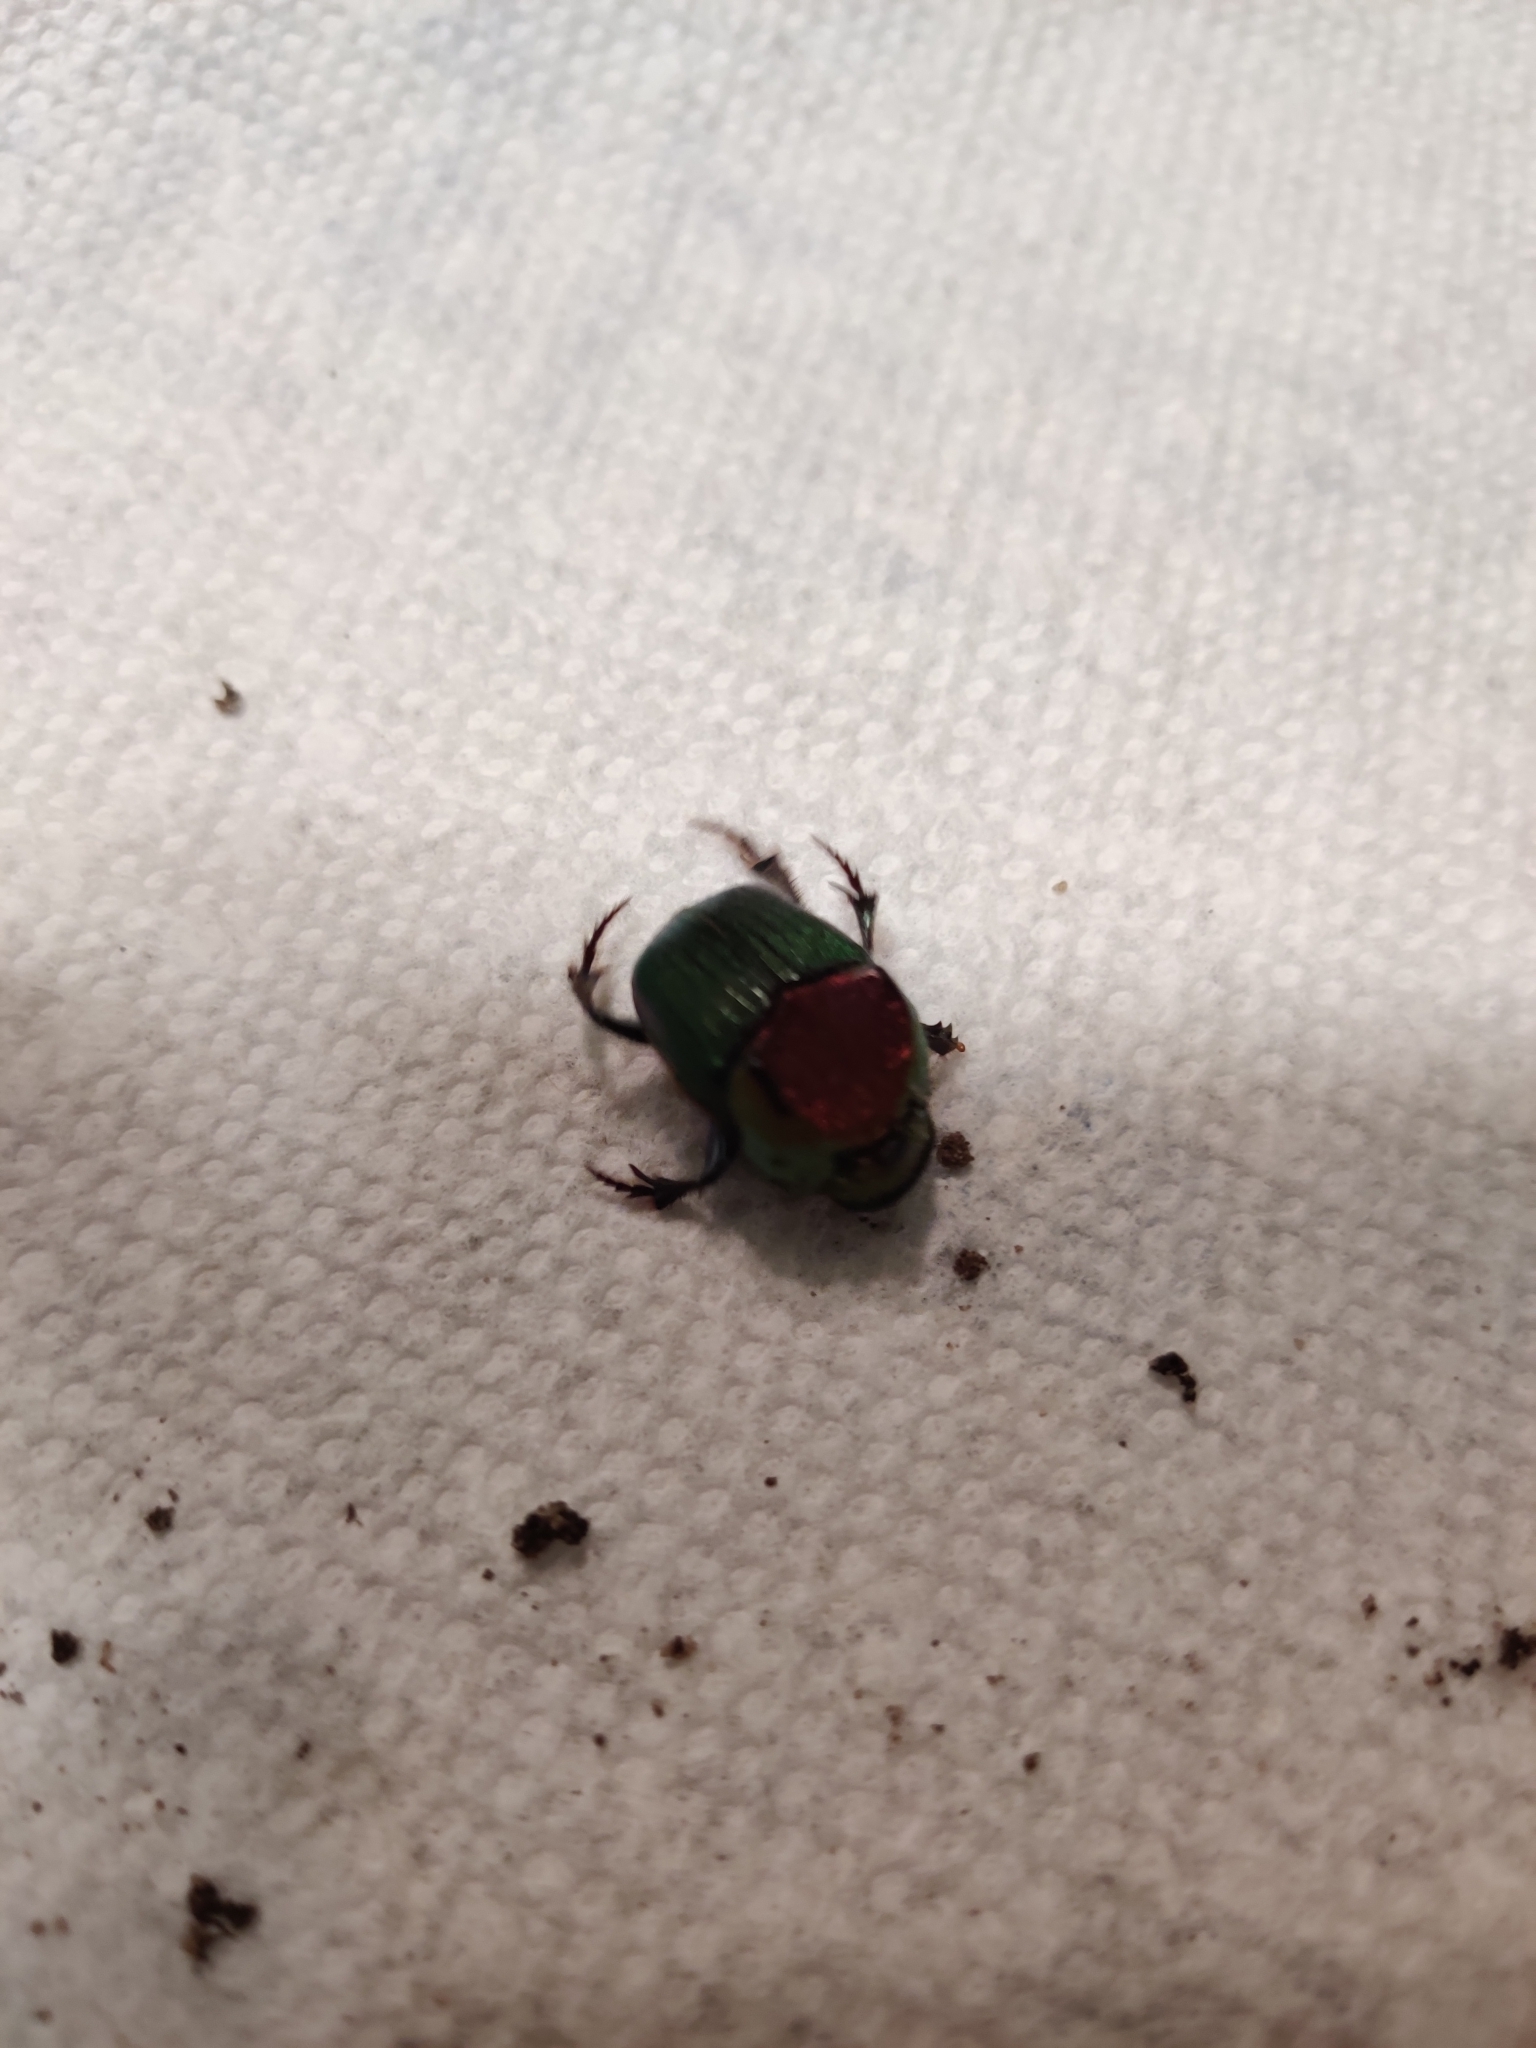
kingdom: Animalia
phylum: Arthropoda
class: Insecta
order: Coleoptera
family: Scarabaeidae
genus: Phanaeus
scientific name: Phanaeus vindex
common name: Rainbow scarab
